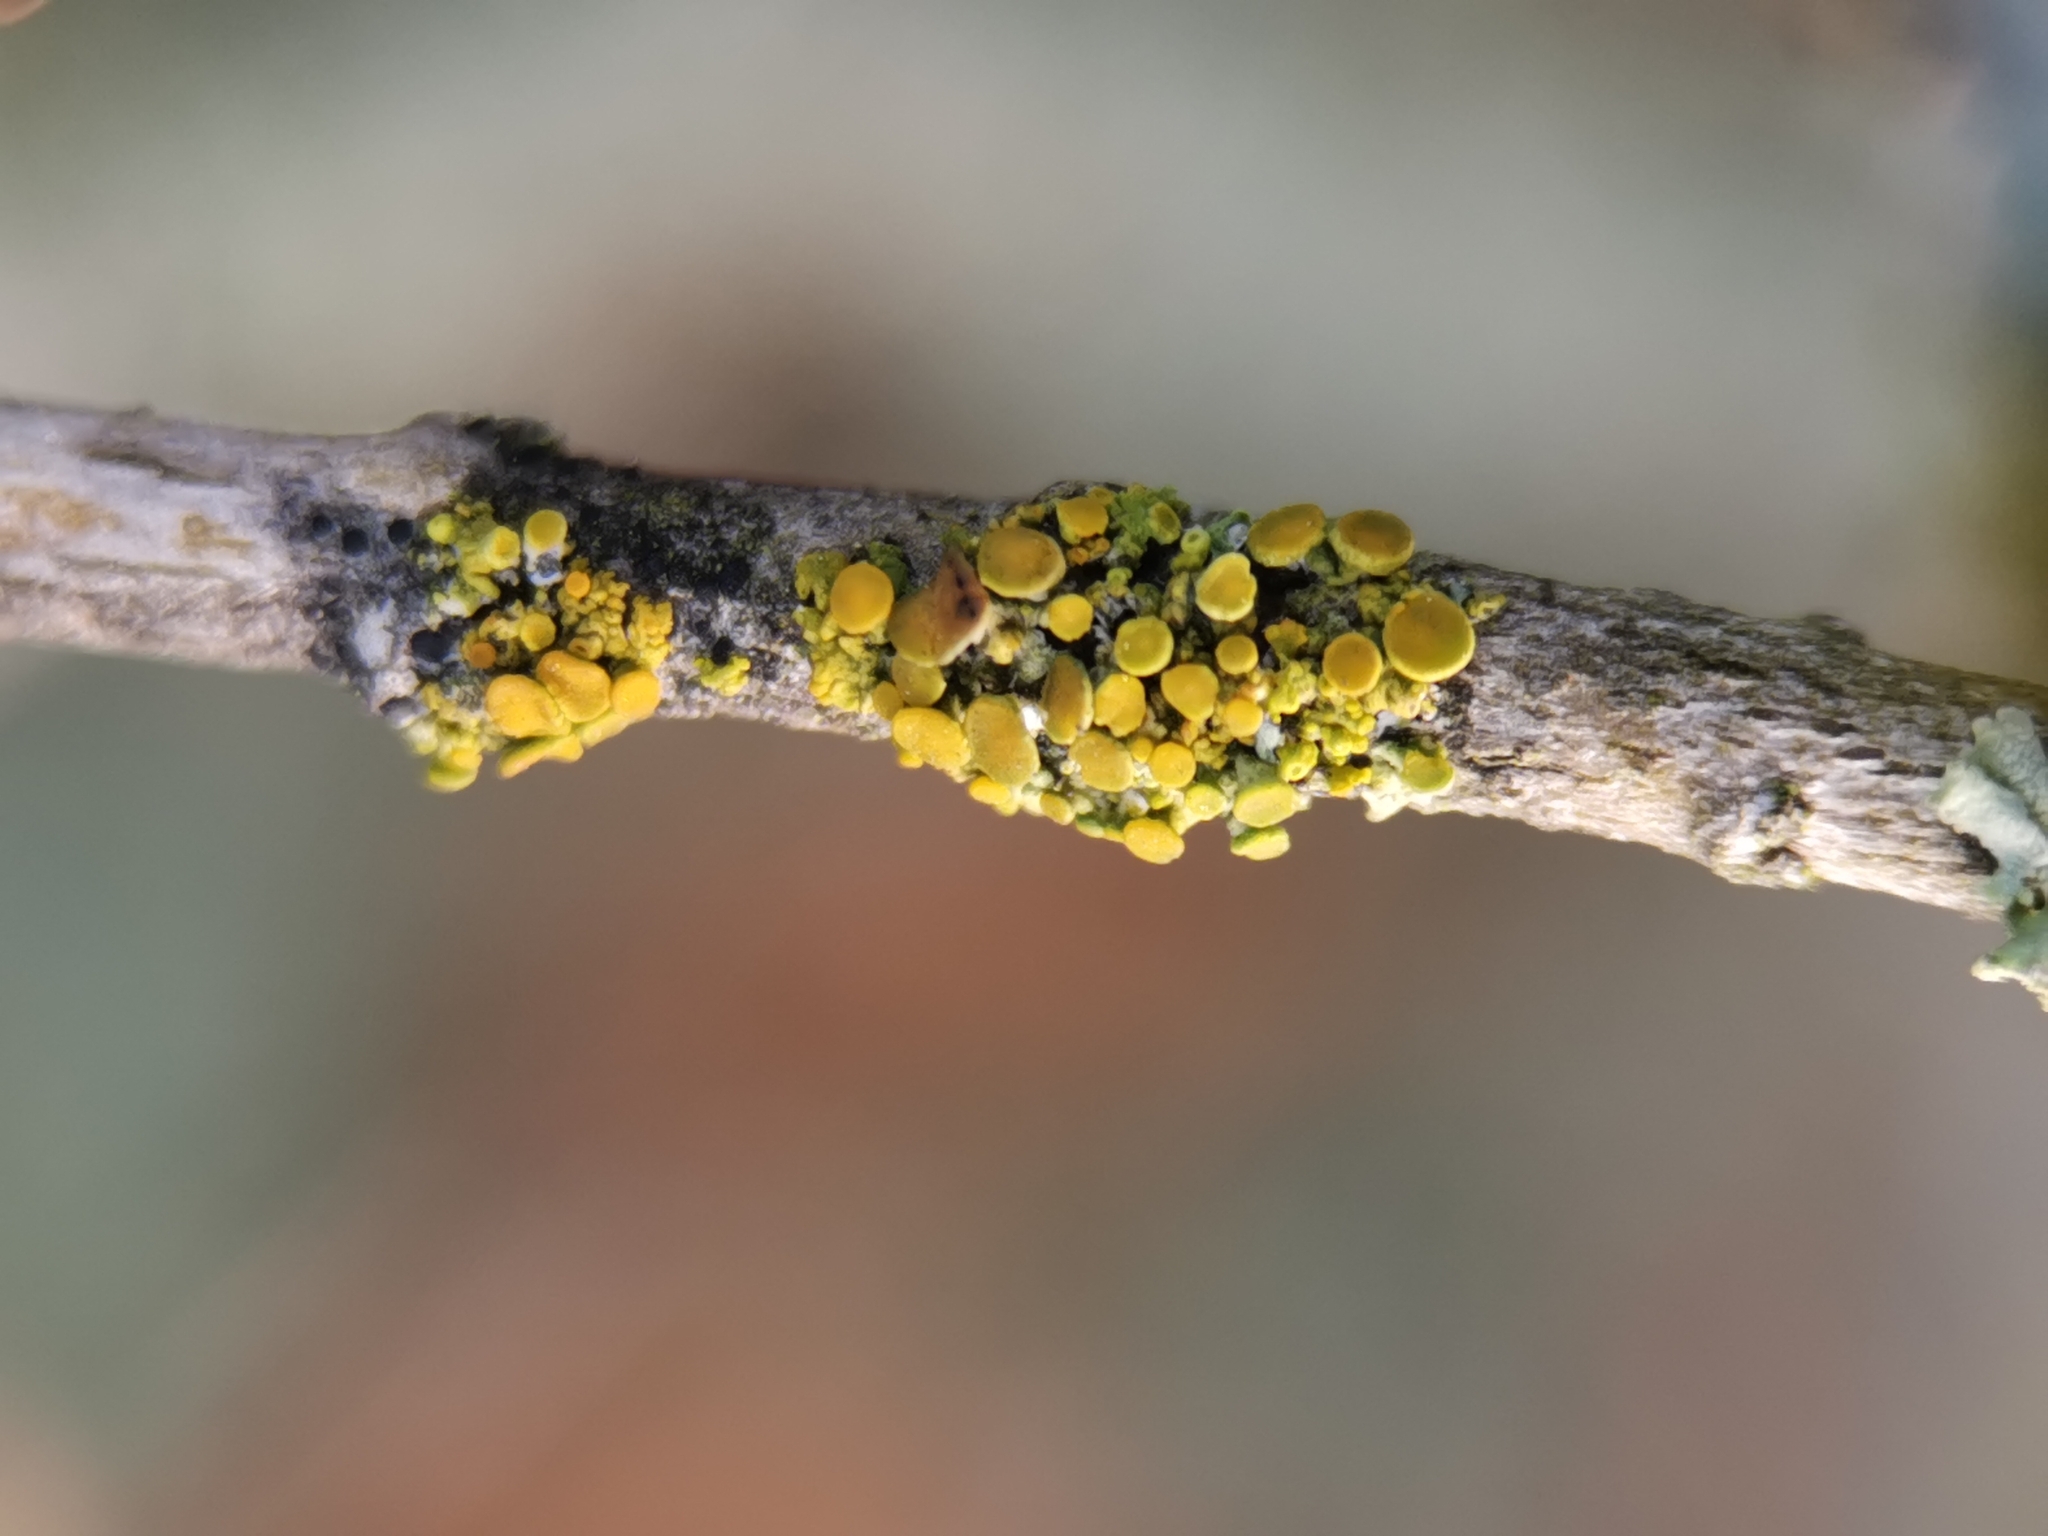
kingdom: Fungi
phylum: Ascomycota
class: Lecanoromycetes
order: Teloschistales
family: Teloschistaceae
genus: Polycauliona
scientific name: Polycauliona polycarpa
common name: Pin-cushion sunburst lichen
